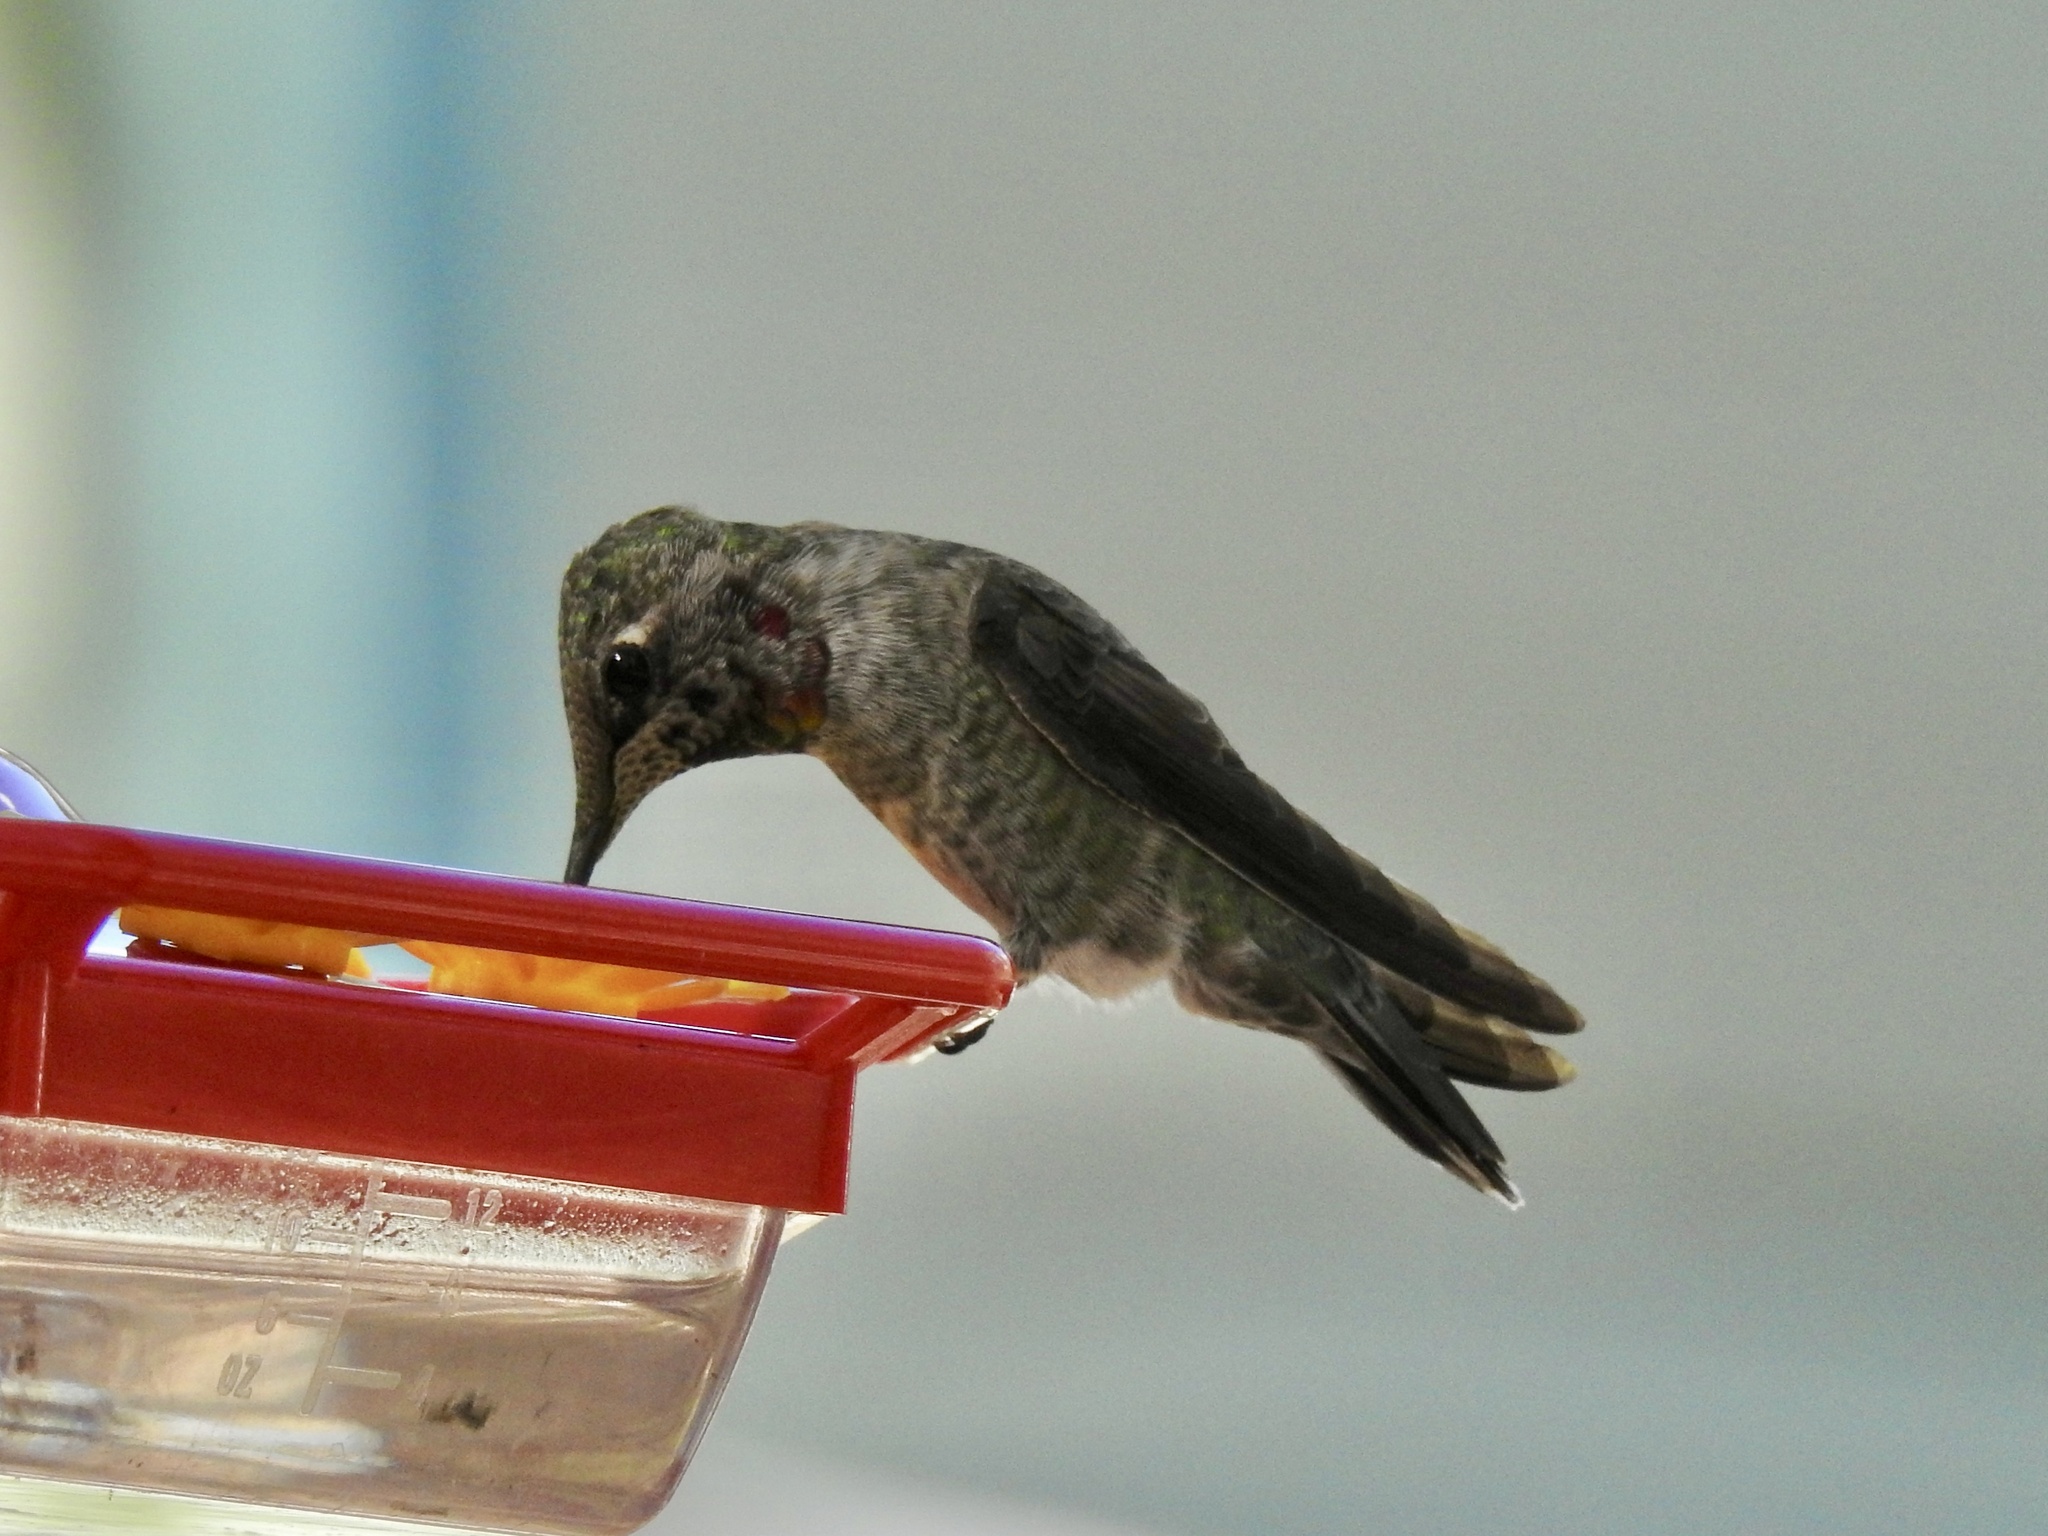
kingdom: Animalia
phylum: Chordata
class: Aves
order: Apodiformes
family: Trochilidae
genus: Calypte
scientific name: Calypte anna
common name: Anna's hummingbird
